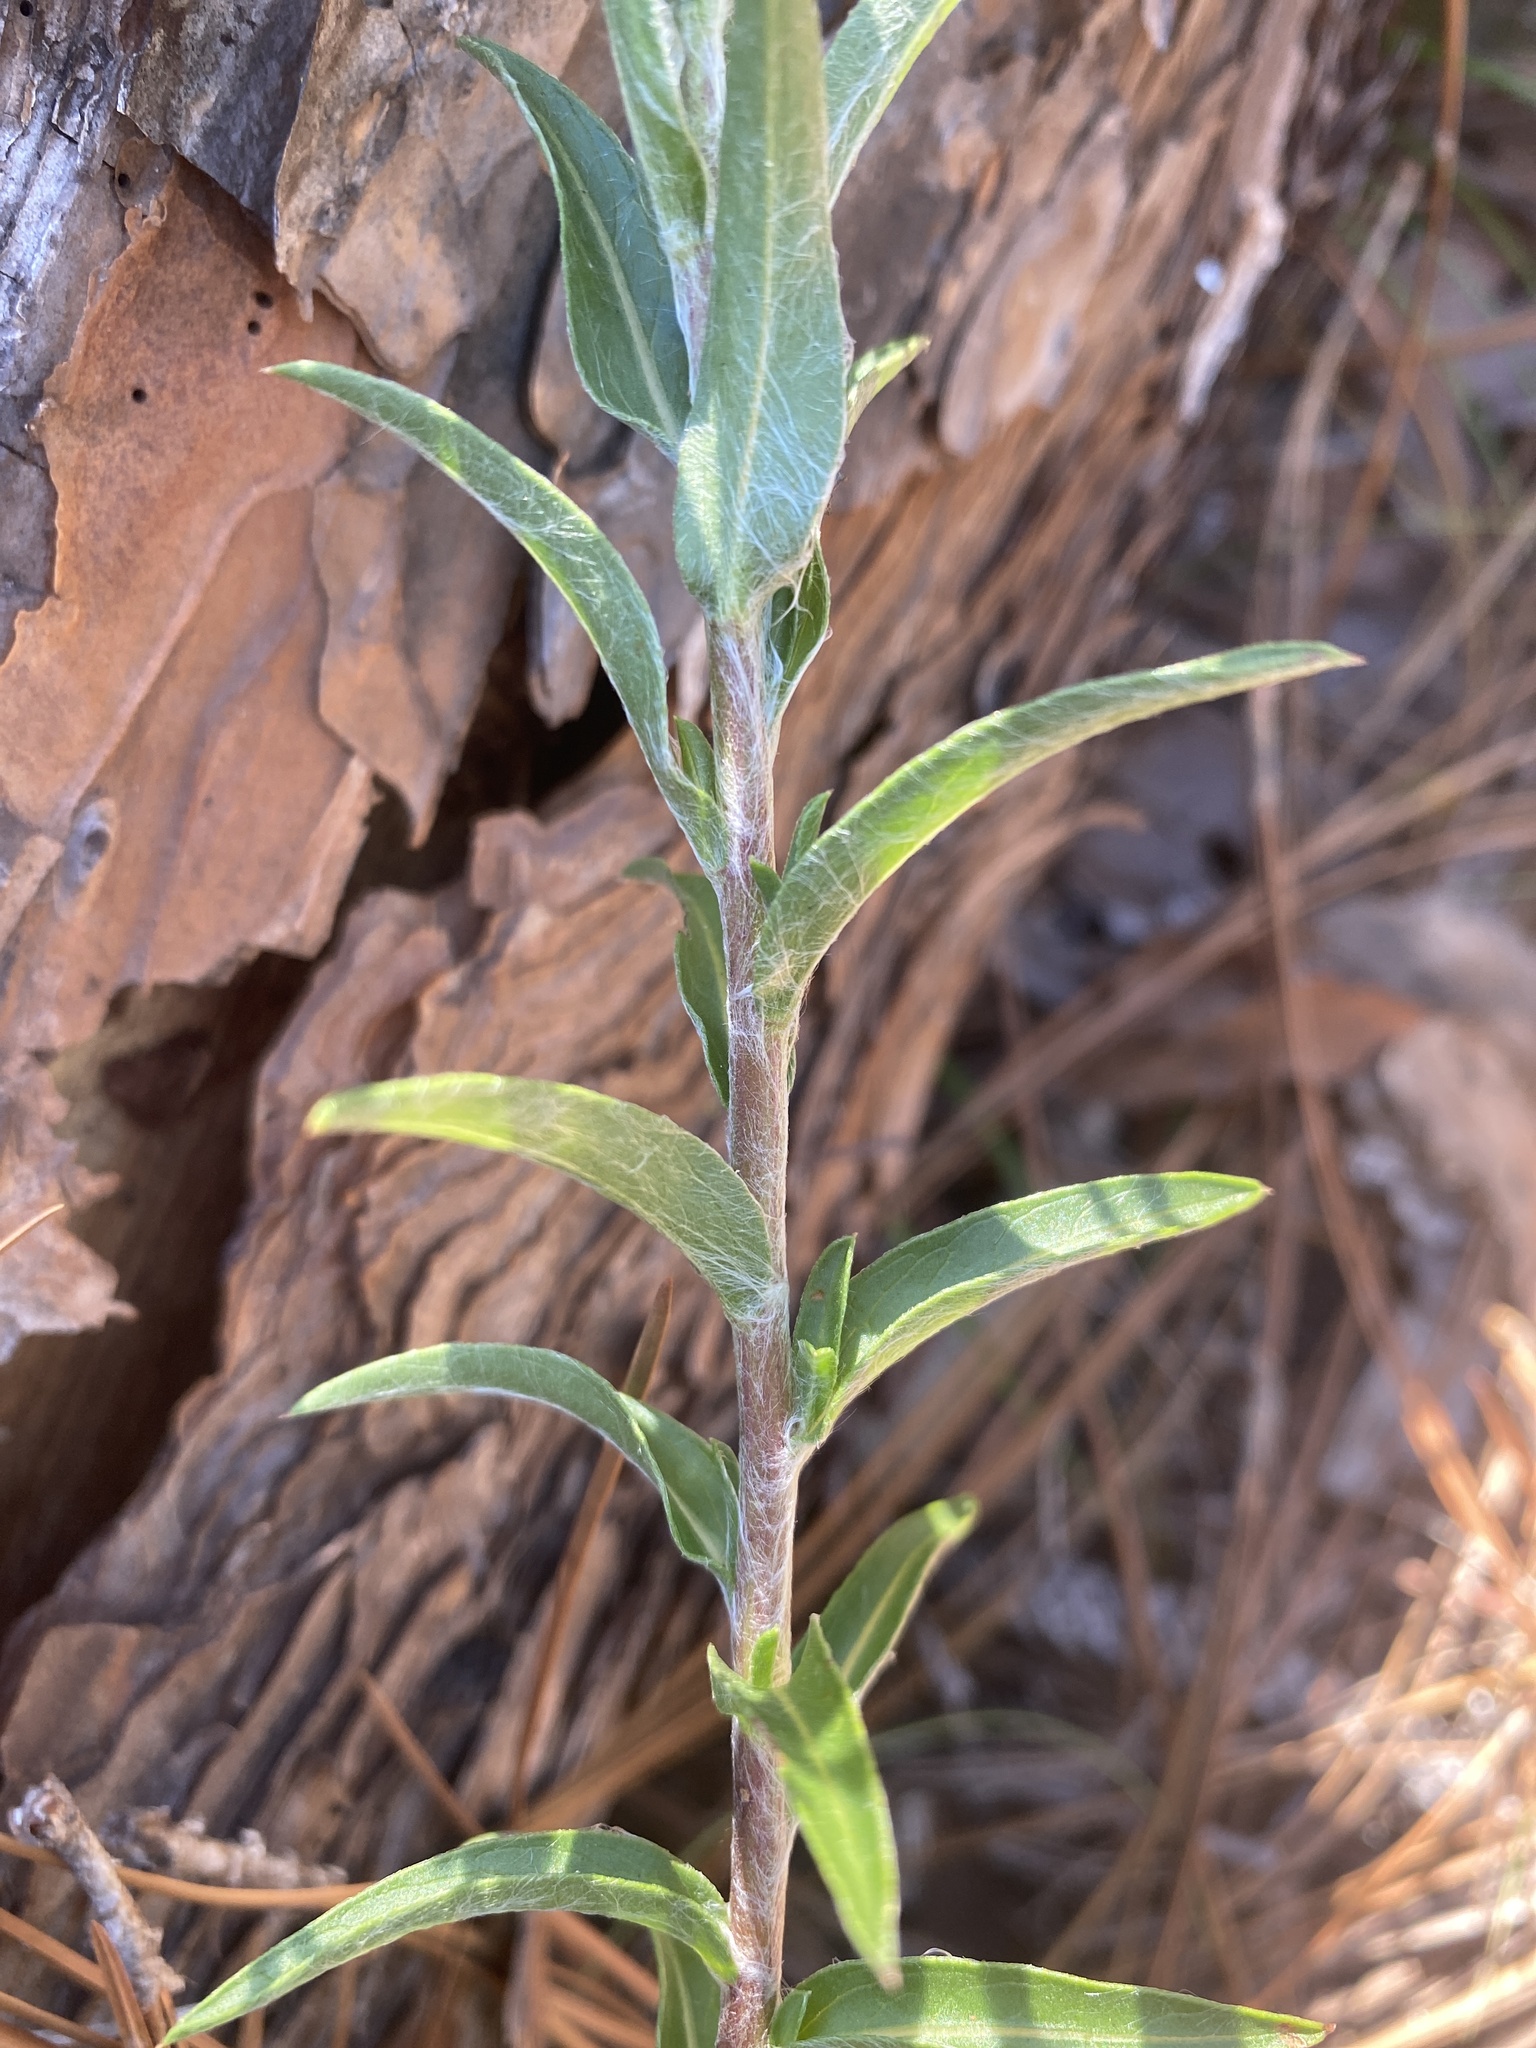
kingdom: Plantae
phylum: Tracheophyta
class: Magnoliopsida
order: Asterales
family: Asteraceae
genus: Chrysopsis
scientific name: Chrysopsis mariana
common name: Maryland golden-aster
